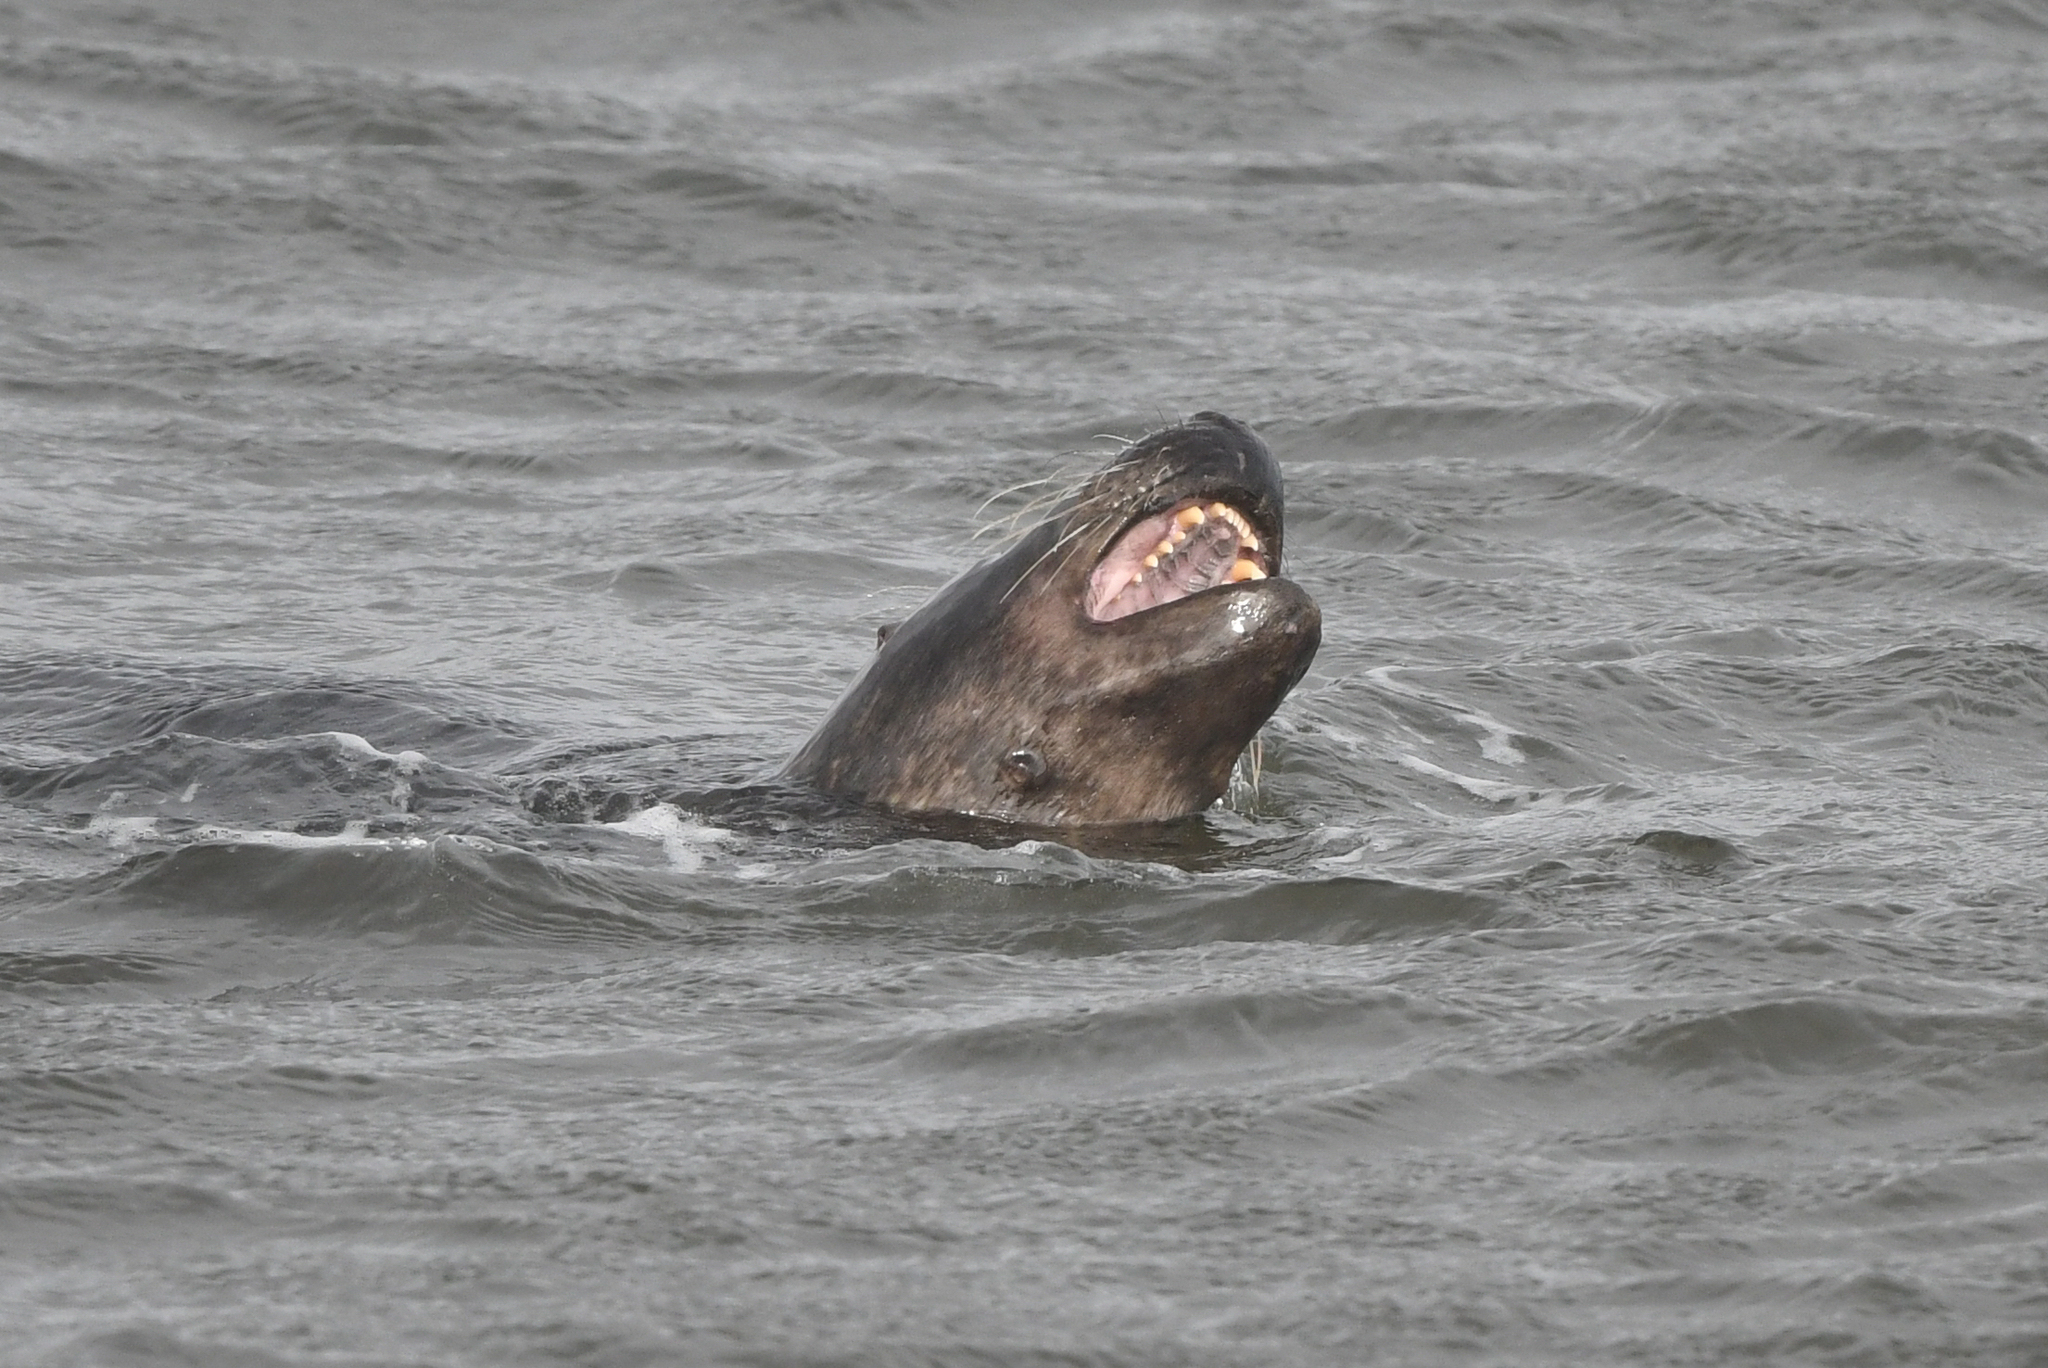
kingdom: Animalia
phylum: Chordata
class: Mammalia
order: Carnivora
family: Phocidae
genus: Halichoerus
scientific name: Halichoerus grypus
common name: Grey seal
